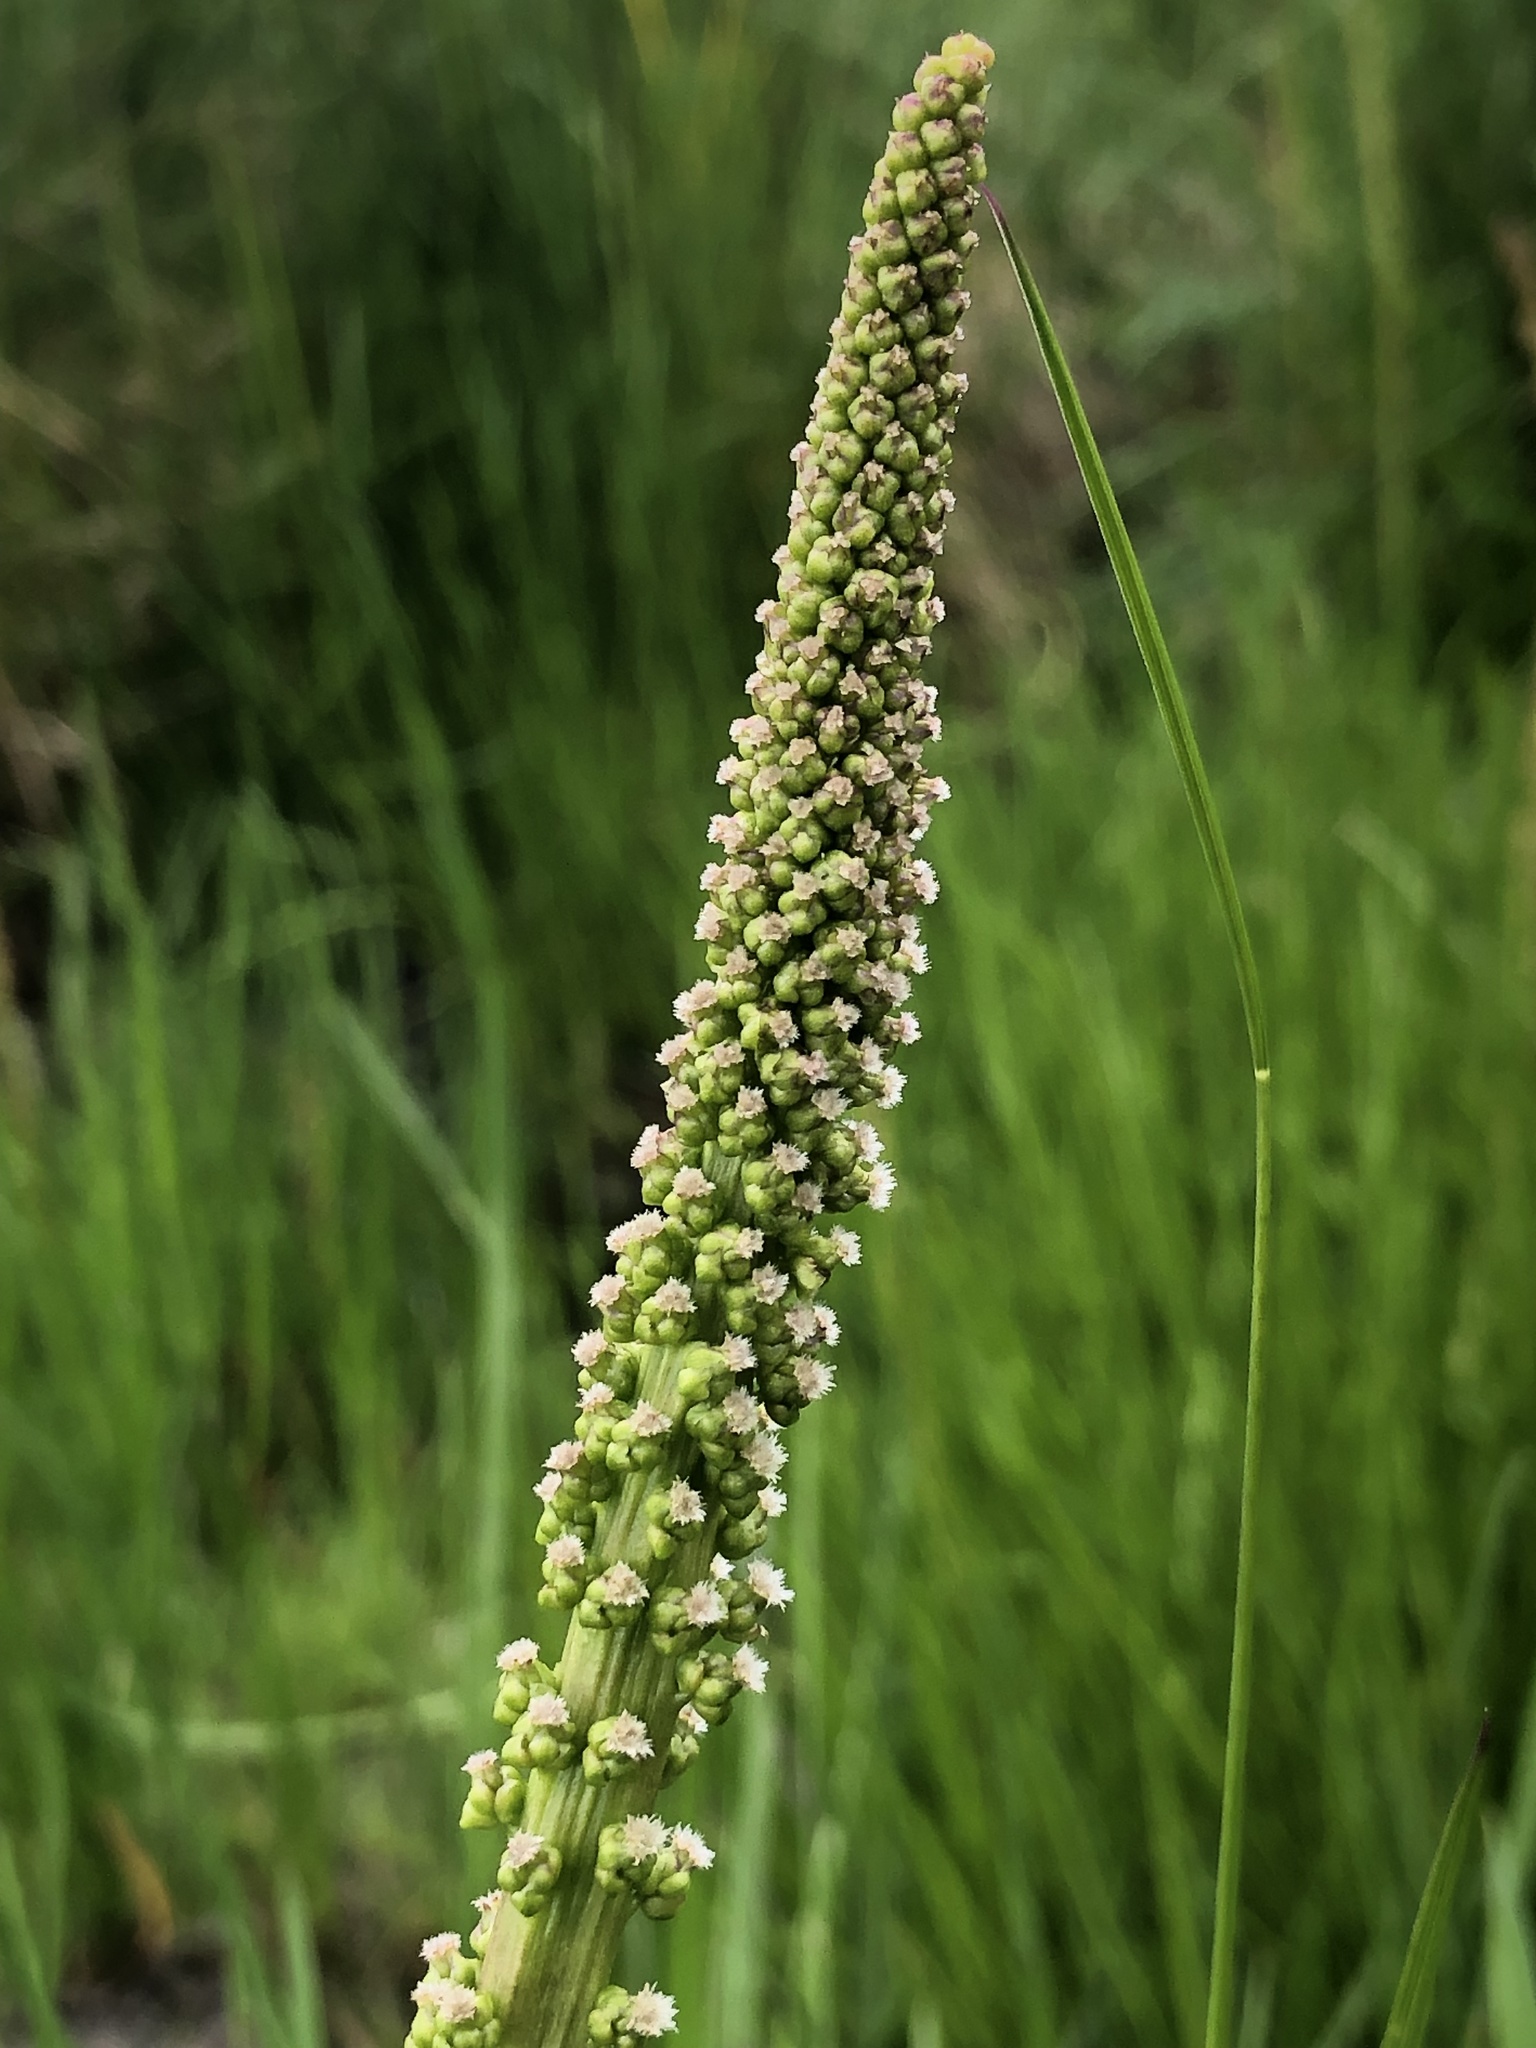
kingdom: Plantae
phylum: Tracheophyta
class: Liliopsida
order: Alismatales
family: Juncaginaceae
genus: Triglochin
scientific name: Triglochin maritima
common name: Sea arrowgrass
